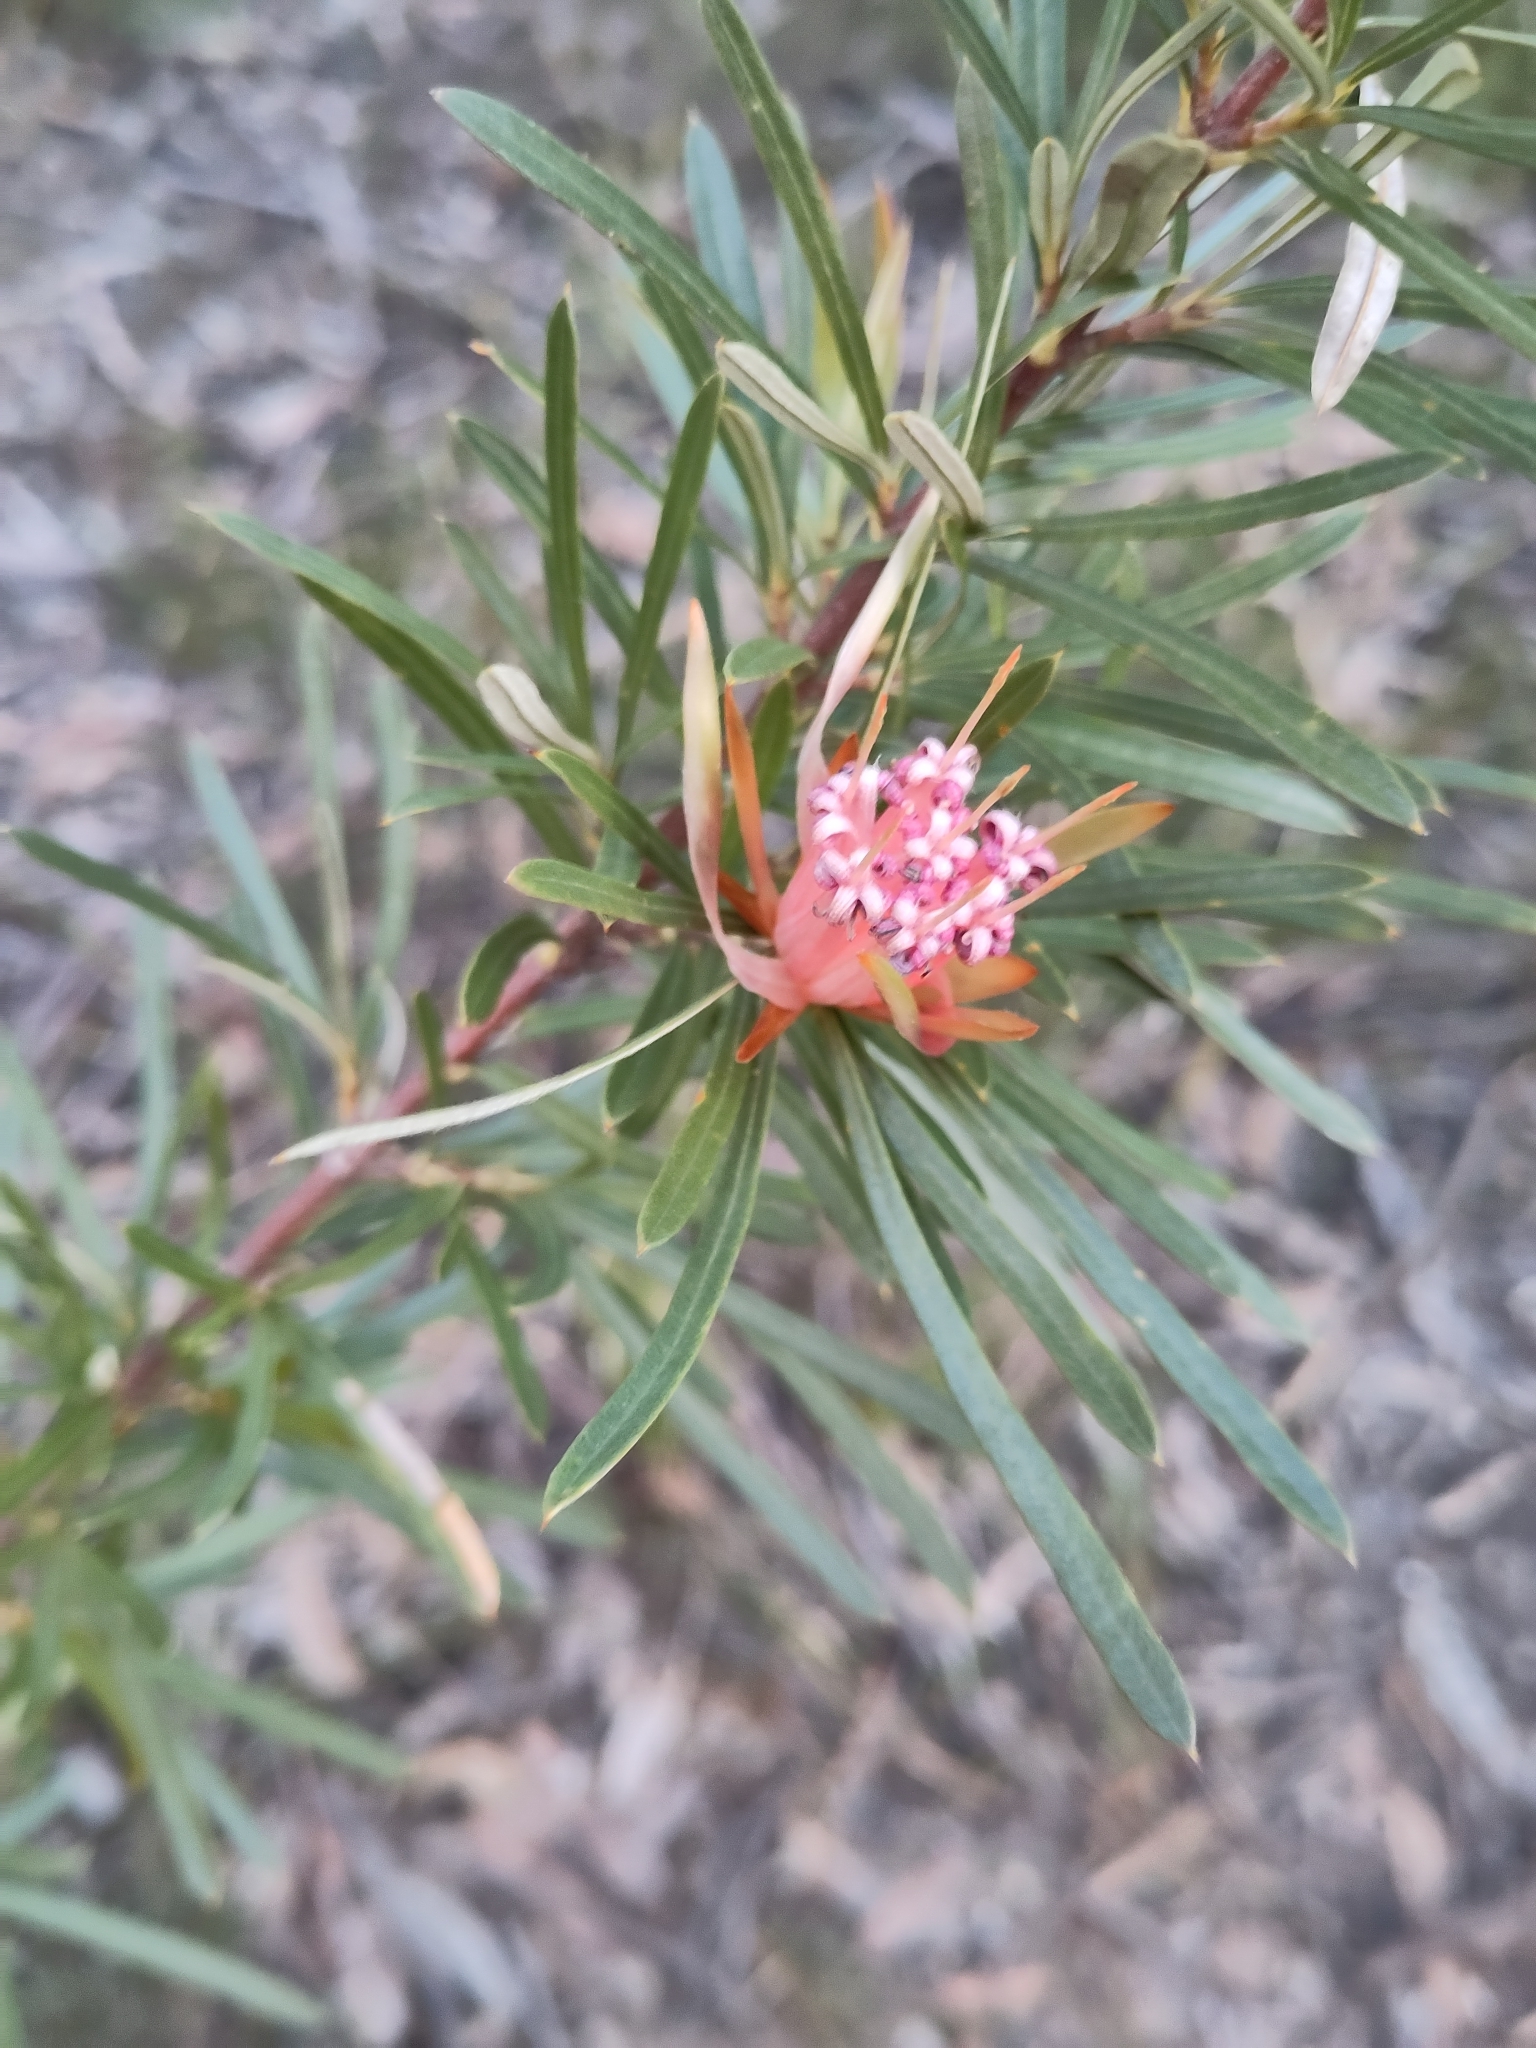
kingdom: Plantae
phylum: Tracheophyta
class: Magnoliopsida
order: Proteales
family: Proteaceae
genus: Lambertia
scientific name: Lambertia formosa
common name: Mountain-devil
